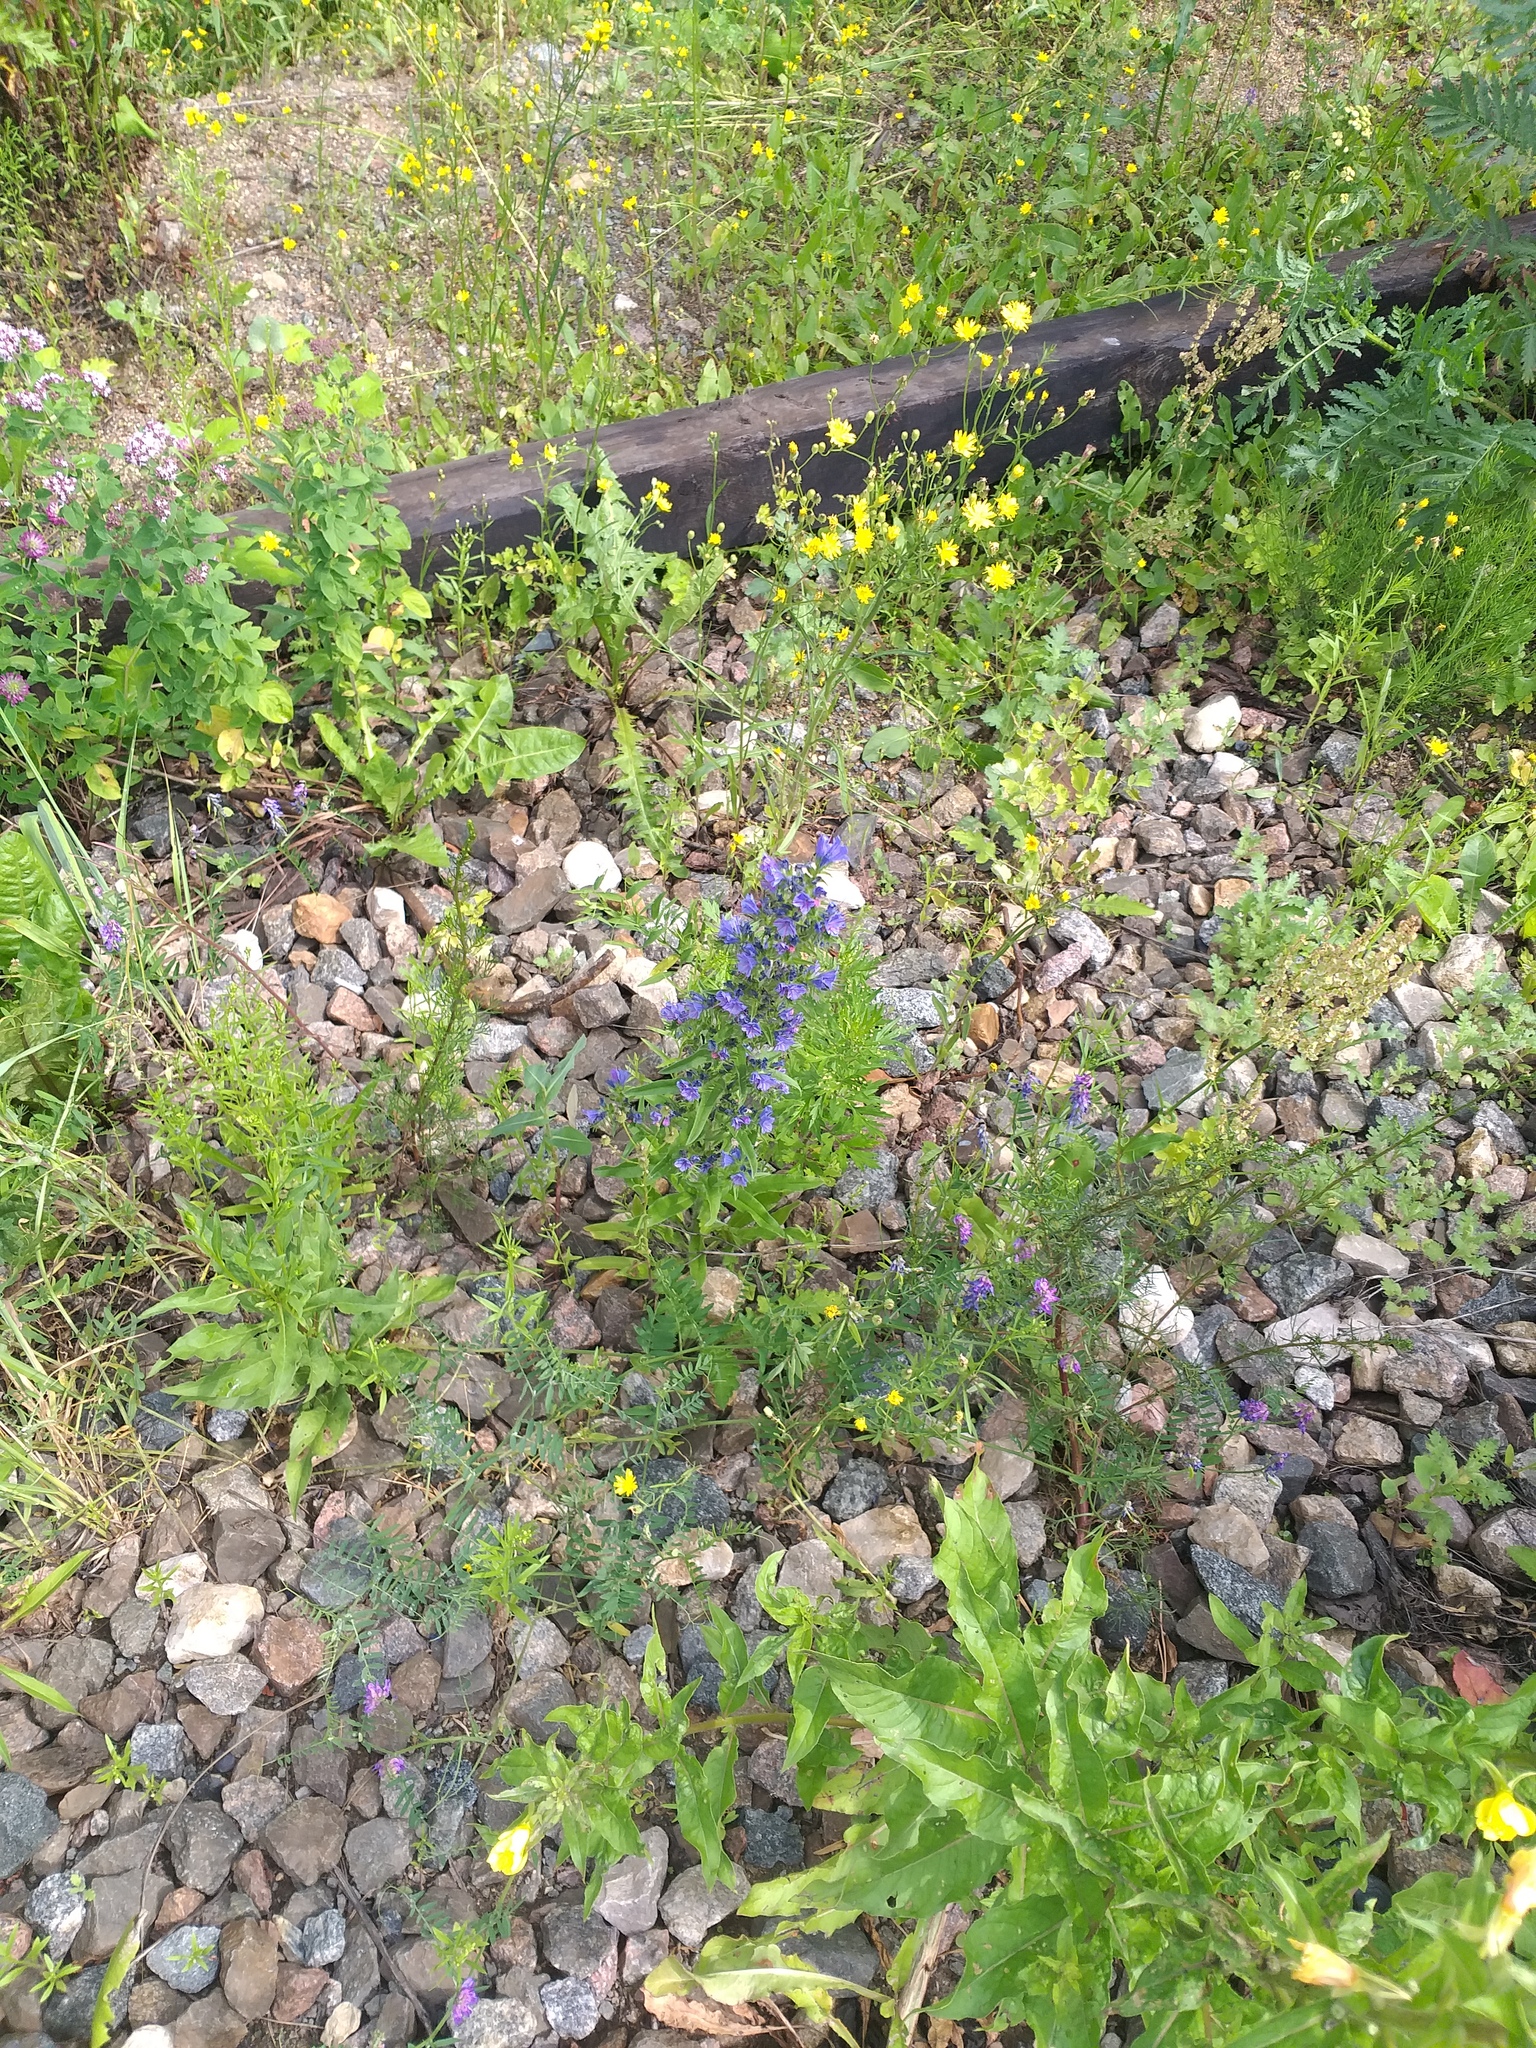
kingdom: Plantae
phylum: Tracheophyta
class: Magnoliopsida
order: Boraginales
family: Boraginaceae
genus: Echium
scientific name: Echium vulgare
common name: Common viper's bugloss
